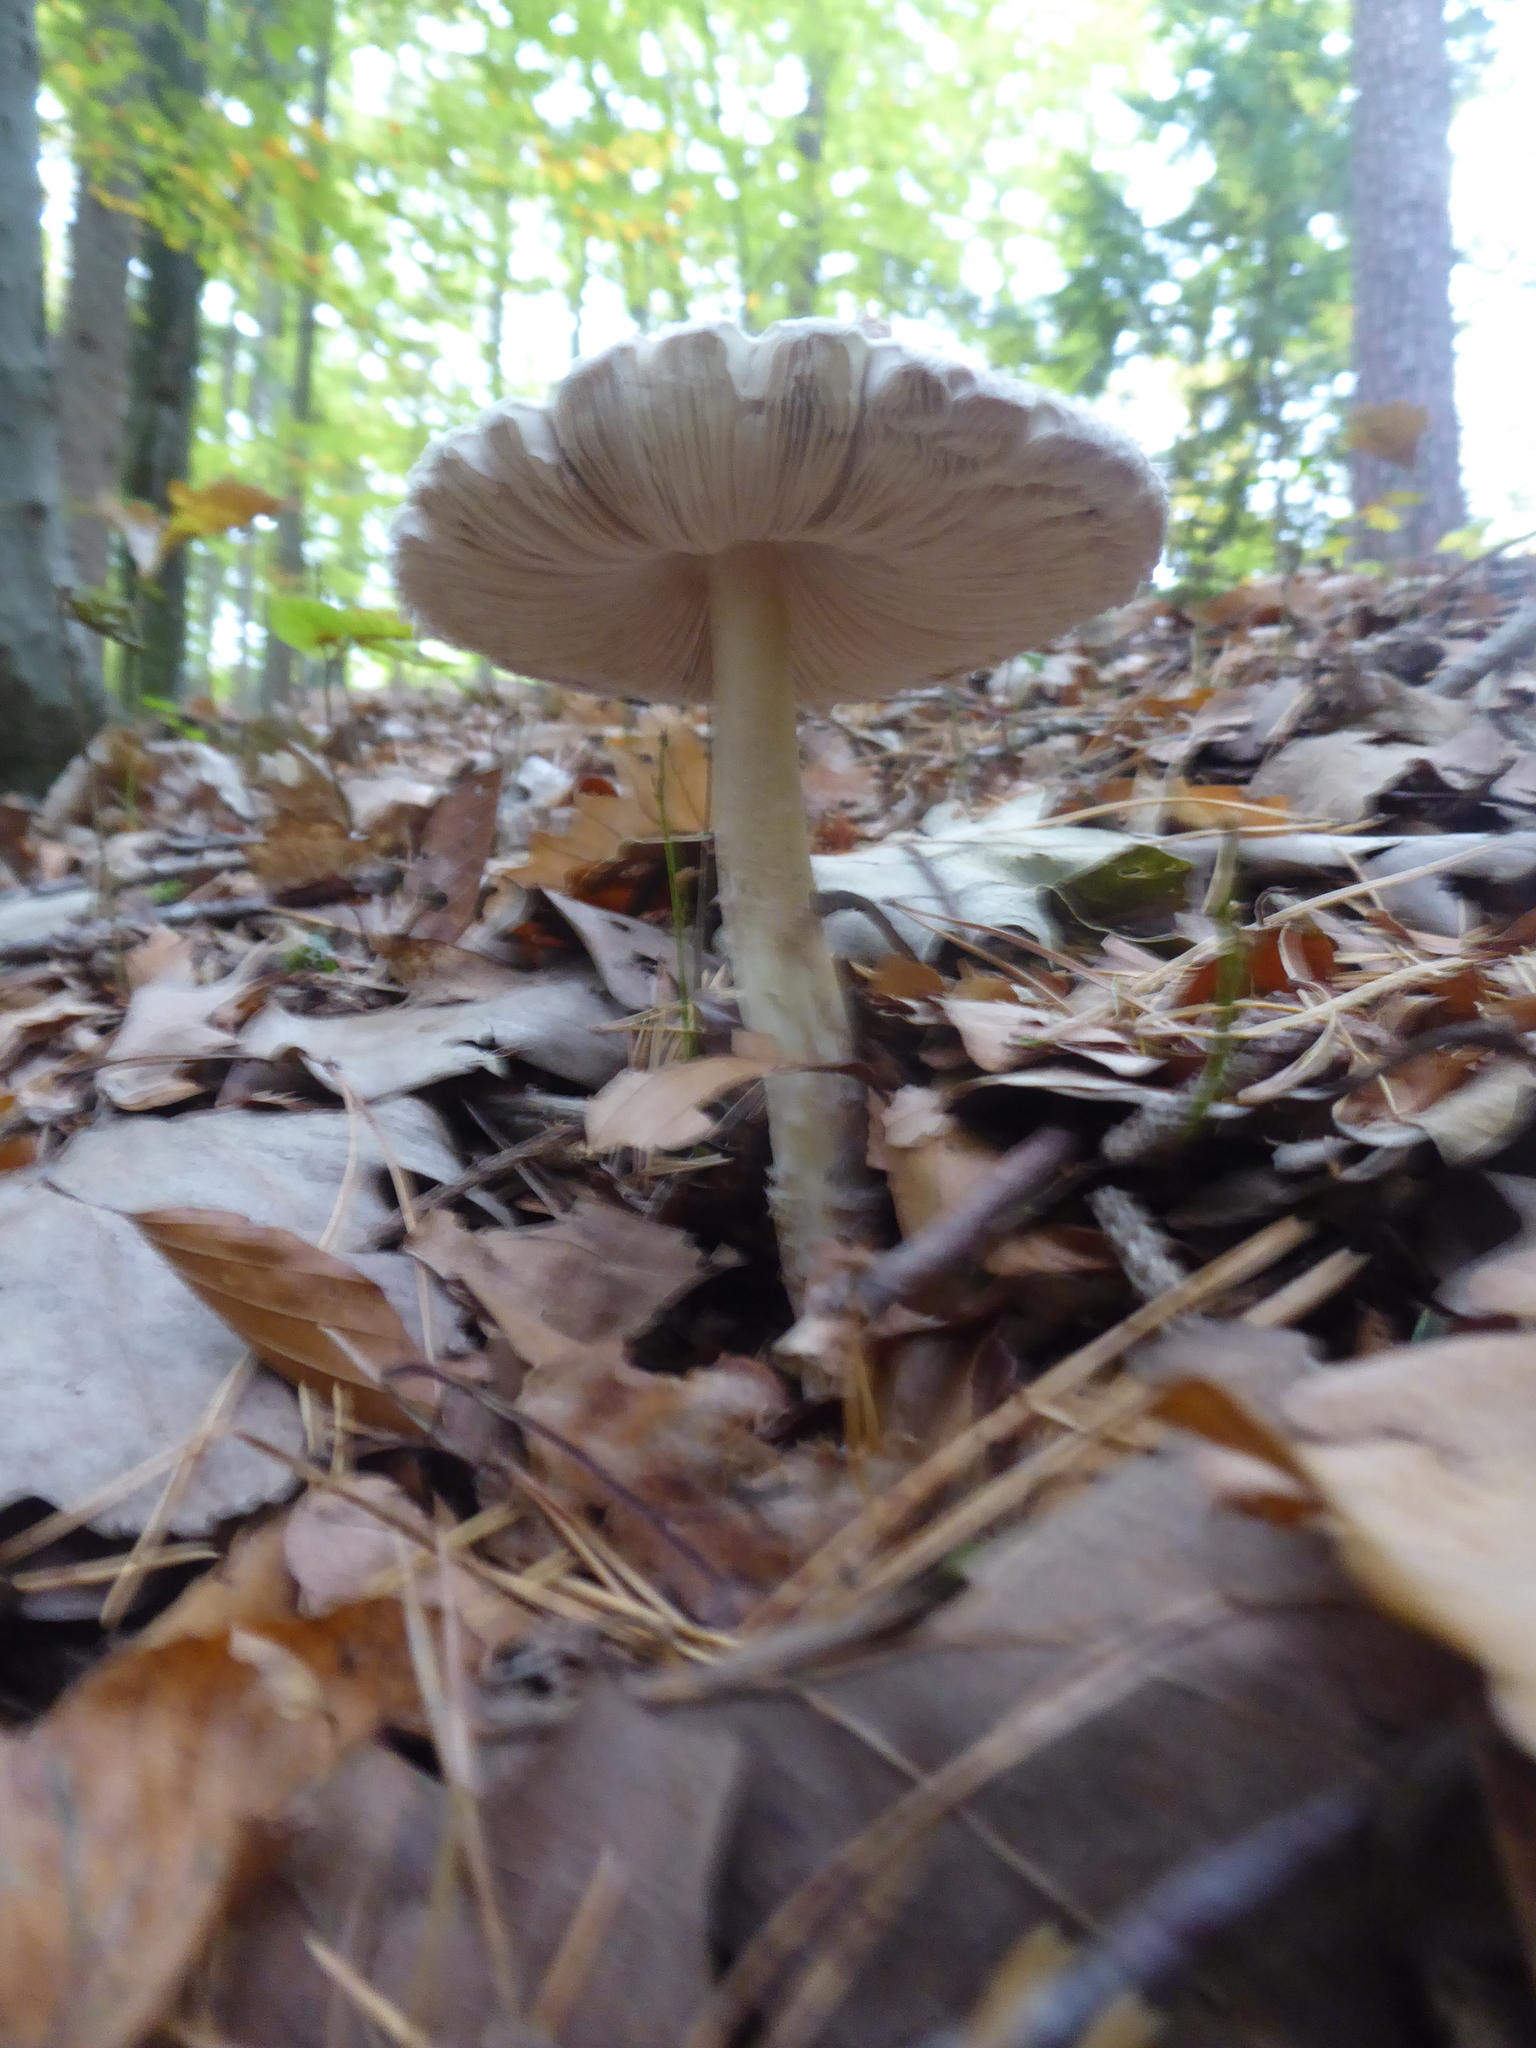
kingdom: Fungi
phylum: Basidiomycota
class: Agaricomycetes
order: Agaricales
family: Agaricaceae
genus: Macrolepiota
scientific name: Macrolepiota procera
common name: Parasol
